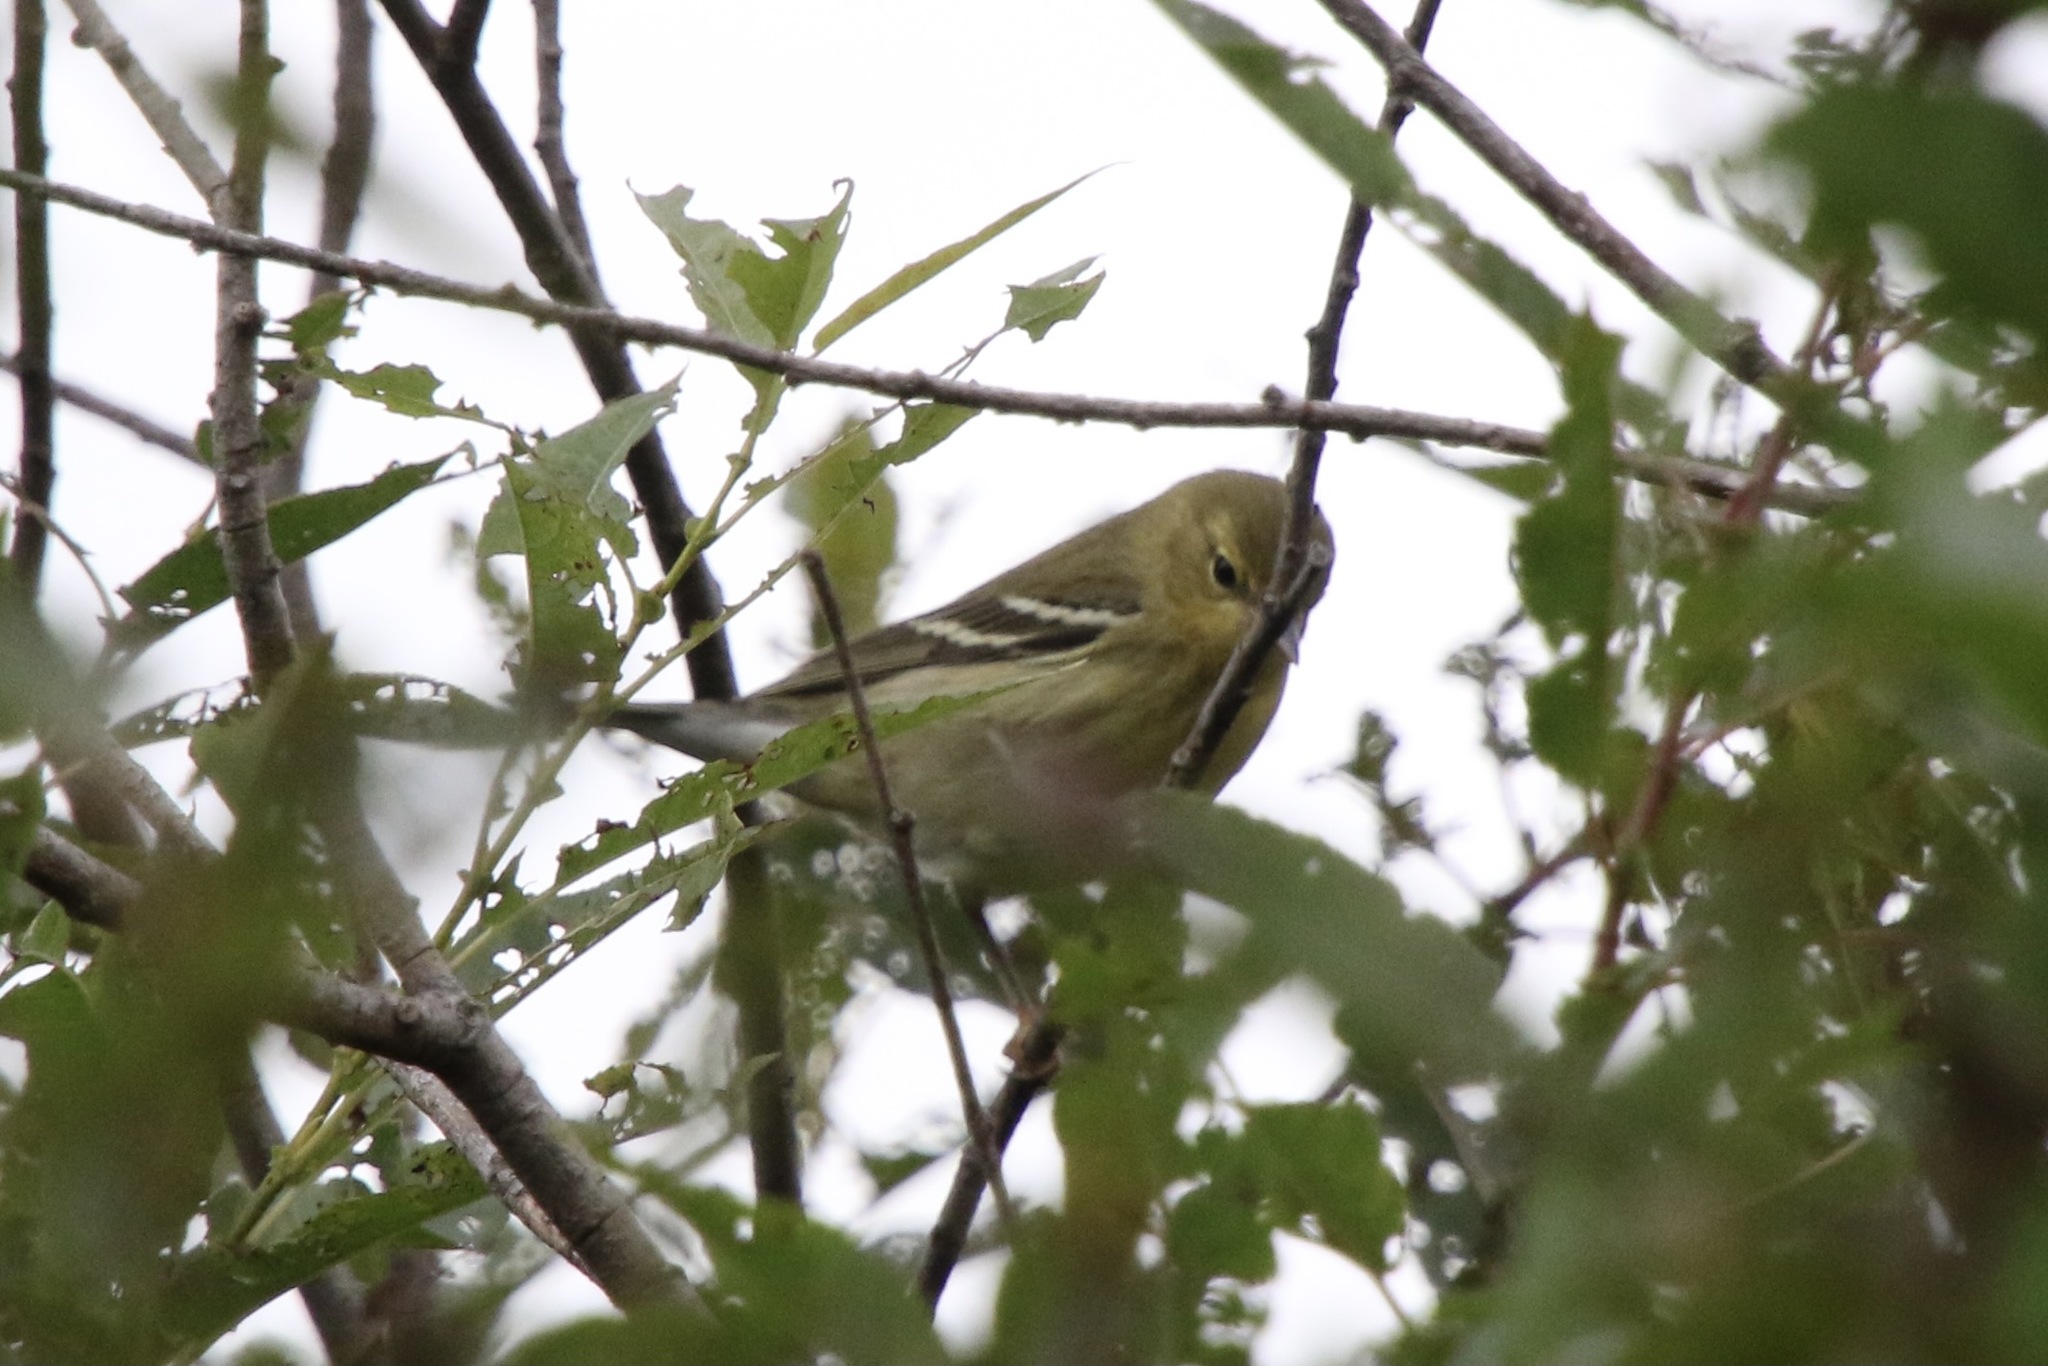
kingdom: Animalia
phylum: Chordata
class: Aves
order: Passeriformes
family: Parulidae
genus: Setophaga
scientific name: Setophaga striata
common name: Blackpoll warbler
